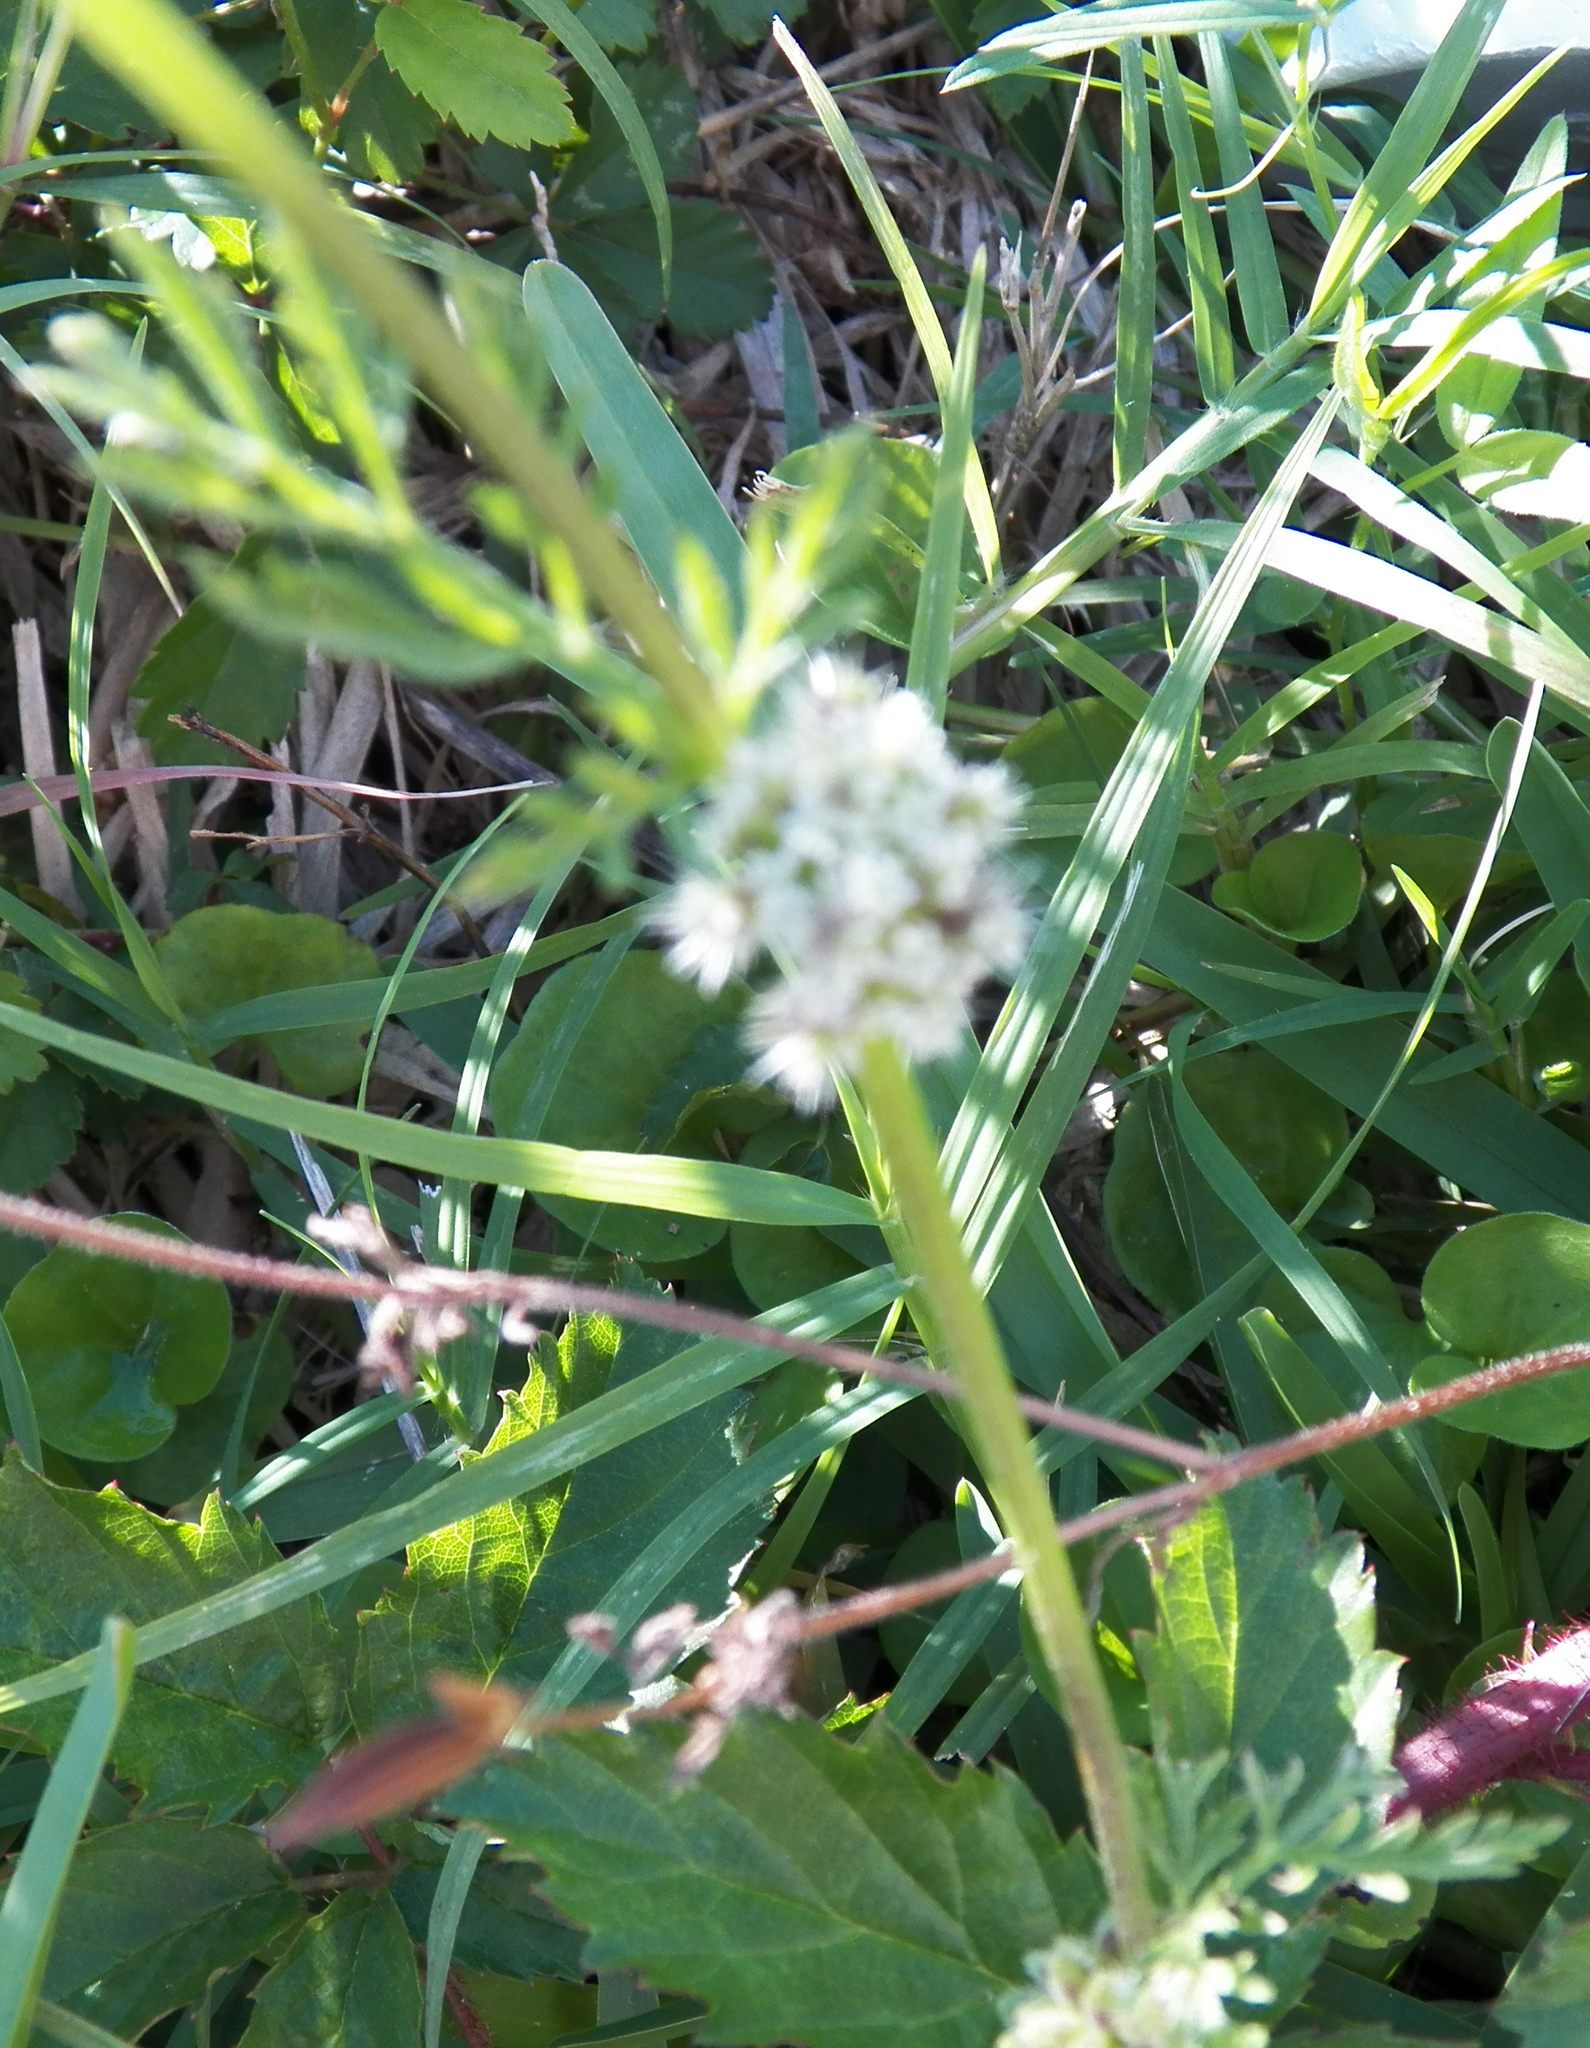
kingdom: Plantae
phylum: Tracheophyta
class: Magnoliopsida
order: Apiales
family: Apiaceae
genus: Torilis
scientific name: Torilis nodosa
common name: Knotted hedge-parsley
